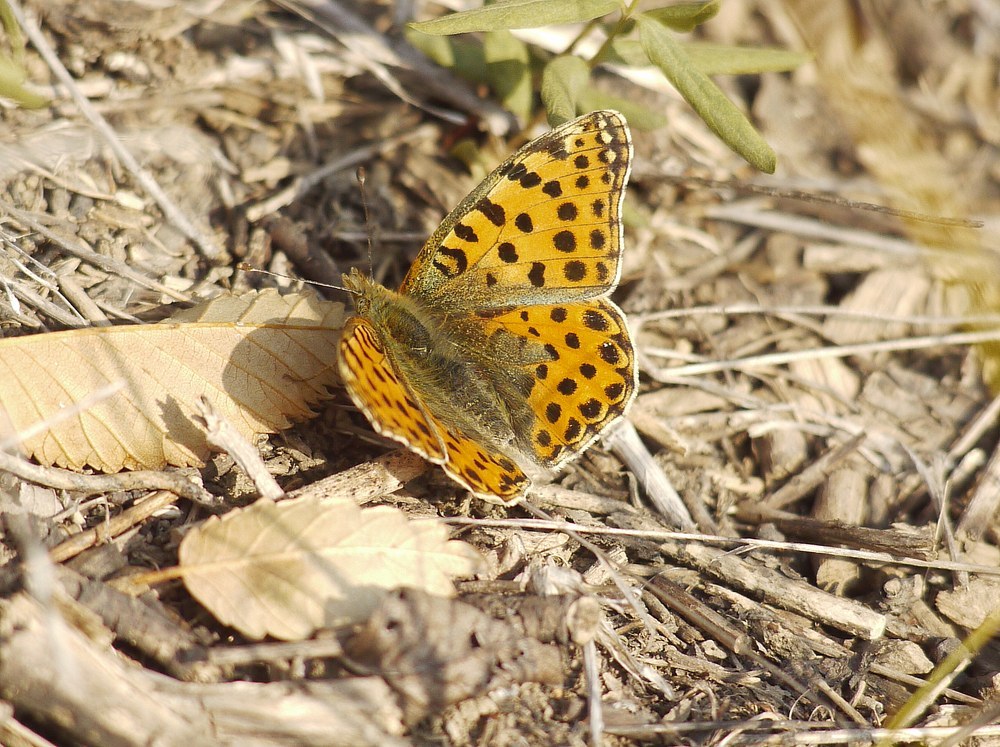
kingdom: Animalia
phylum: Arthropoda
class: Insecta
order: Lepidoptera
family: Nymphalidae
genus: Issoria
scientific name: Issoria lathonia
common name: Queen of spain fritillary
